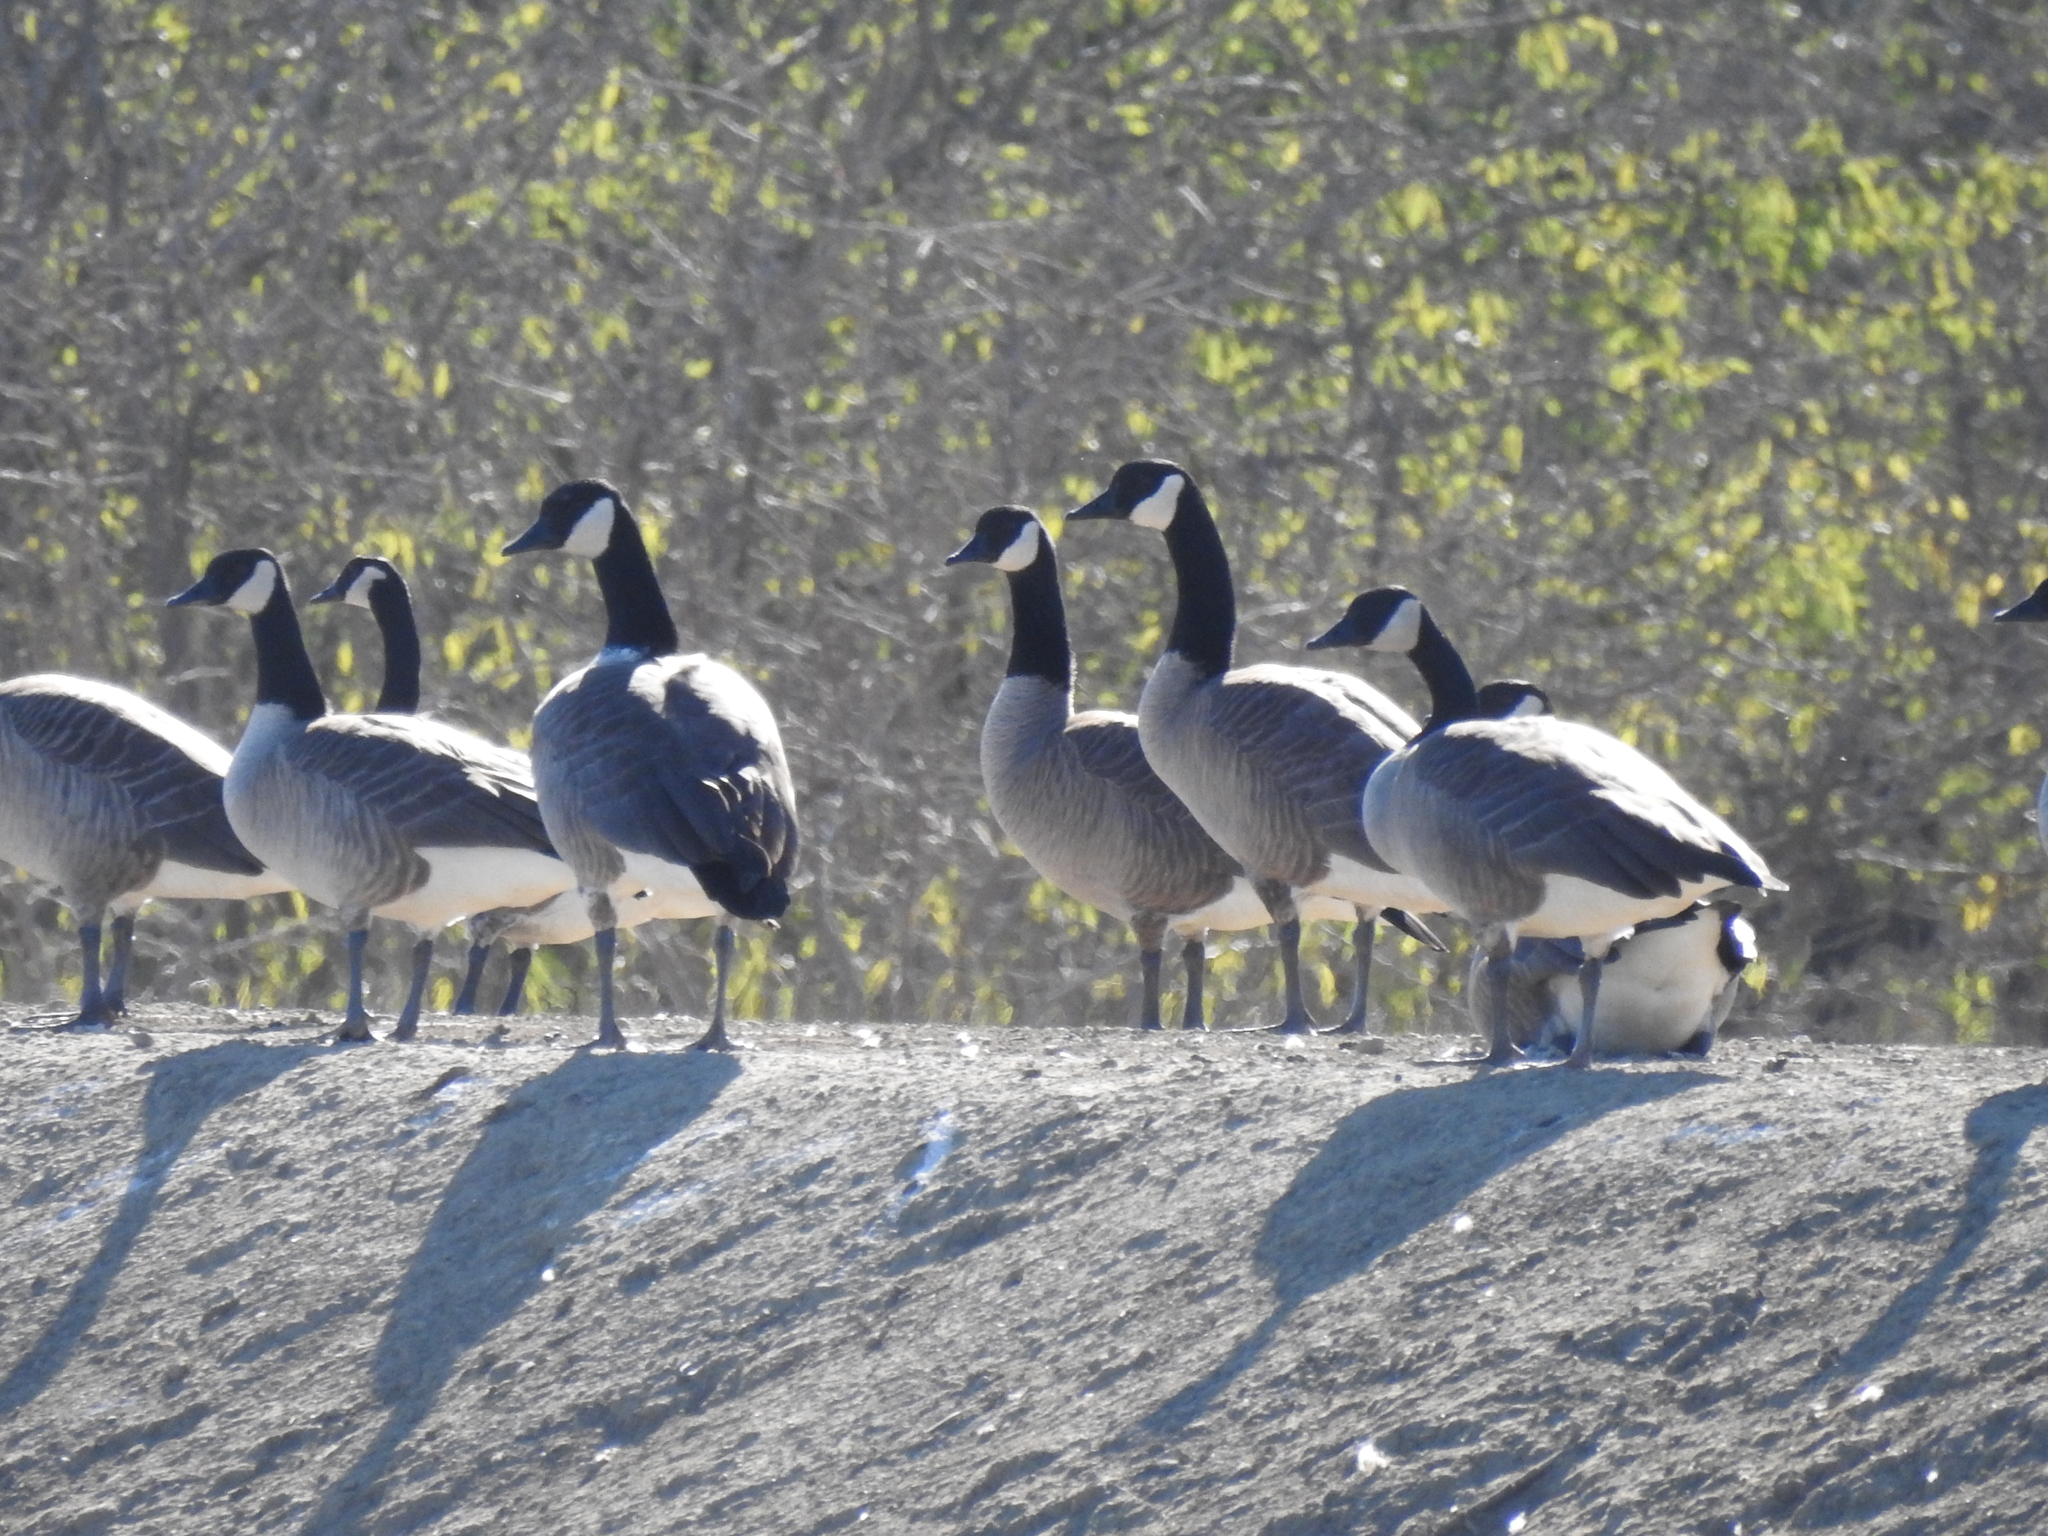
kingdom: Animalia
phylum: Chordata
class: Aves
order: Anseriformes
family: Anatidae
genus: Branta
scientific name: Branta hutchinsii
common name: Cackling goose
